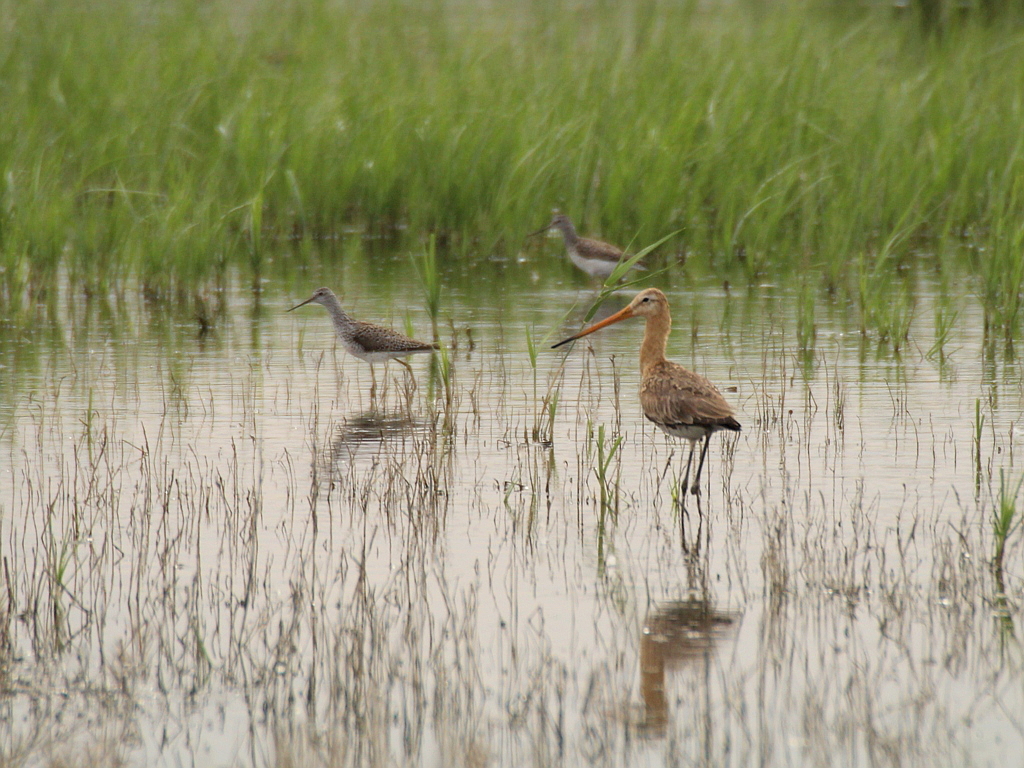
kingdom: Animalia
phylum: Chordata
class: Aves
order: Charadriiformes
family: Scolopacidae
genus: Limosa
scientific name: Limosa limosa
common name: Black-tailed godwit
